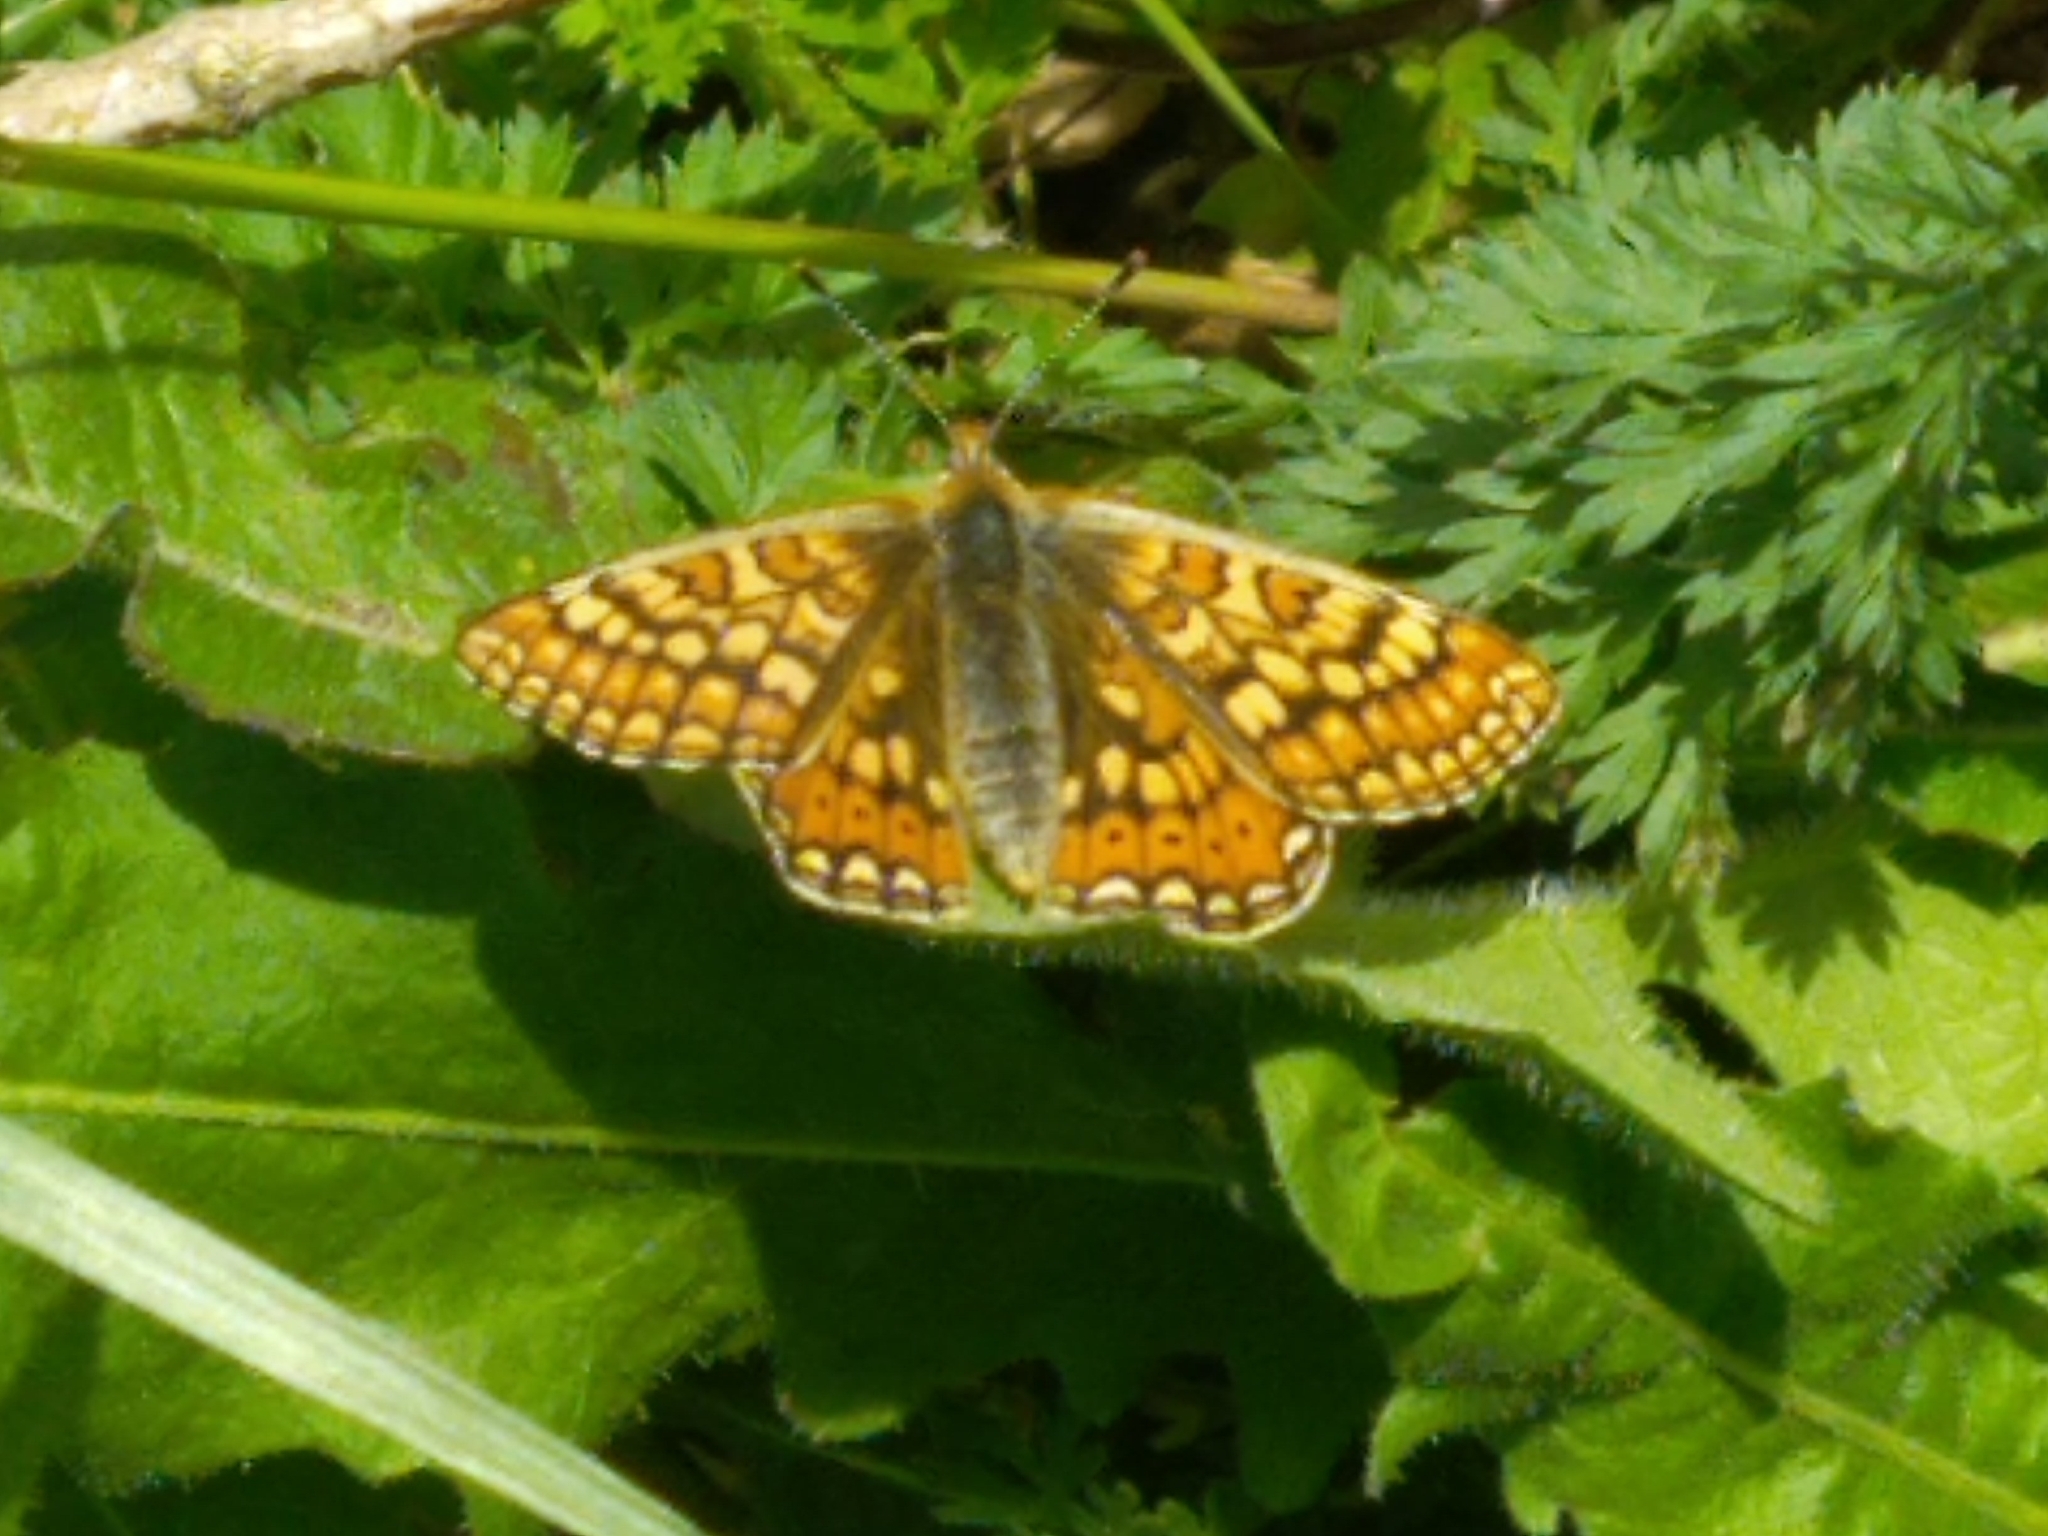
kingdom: Animalia
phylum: Arthropoda
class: Insecta
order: Lepidoptera
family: Nymphalidae
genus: Euphydryas
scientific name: Euphydryas aurinia
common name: Marsh fritillary
